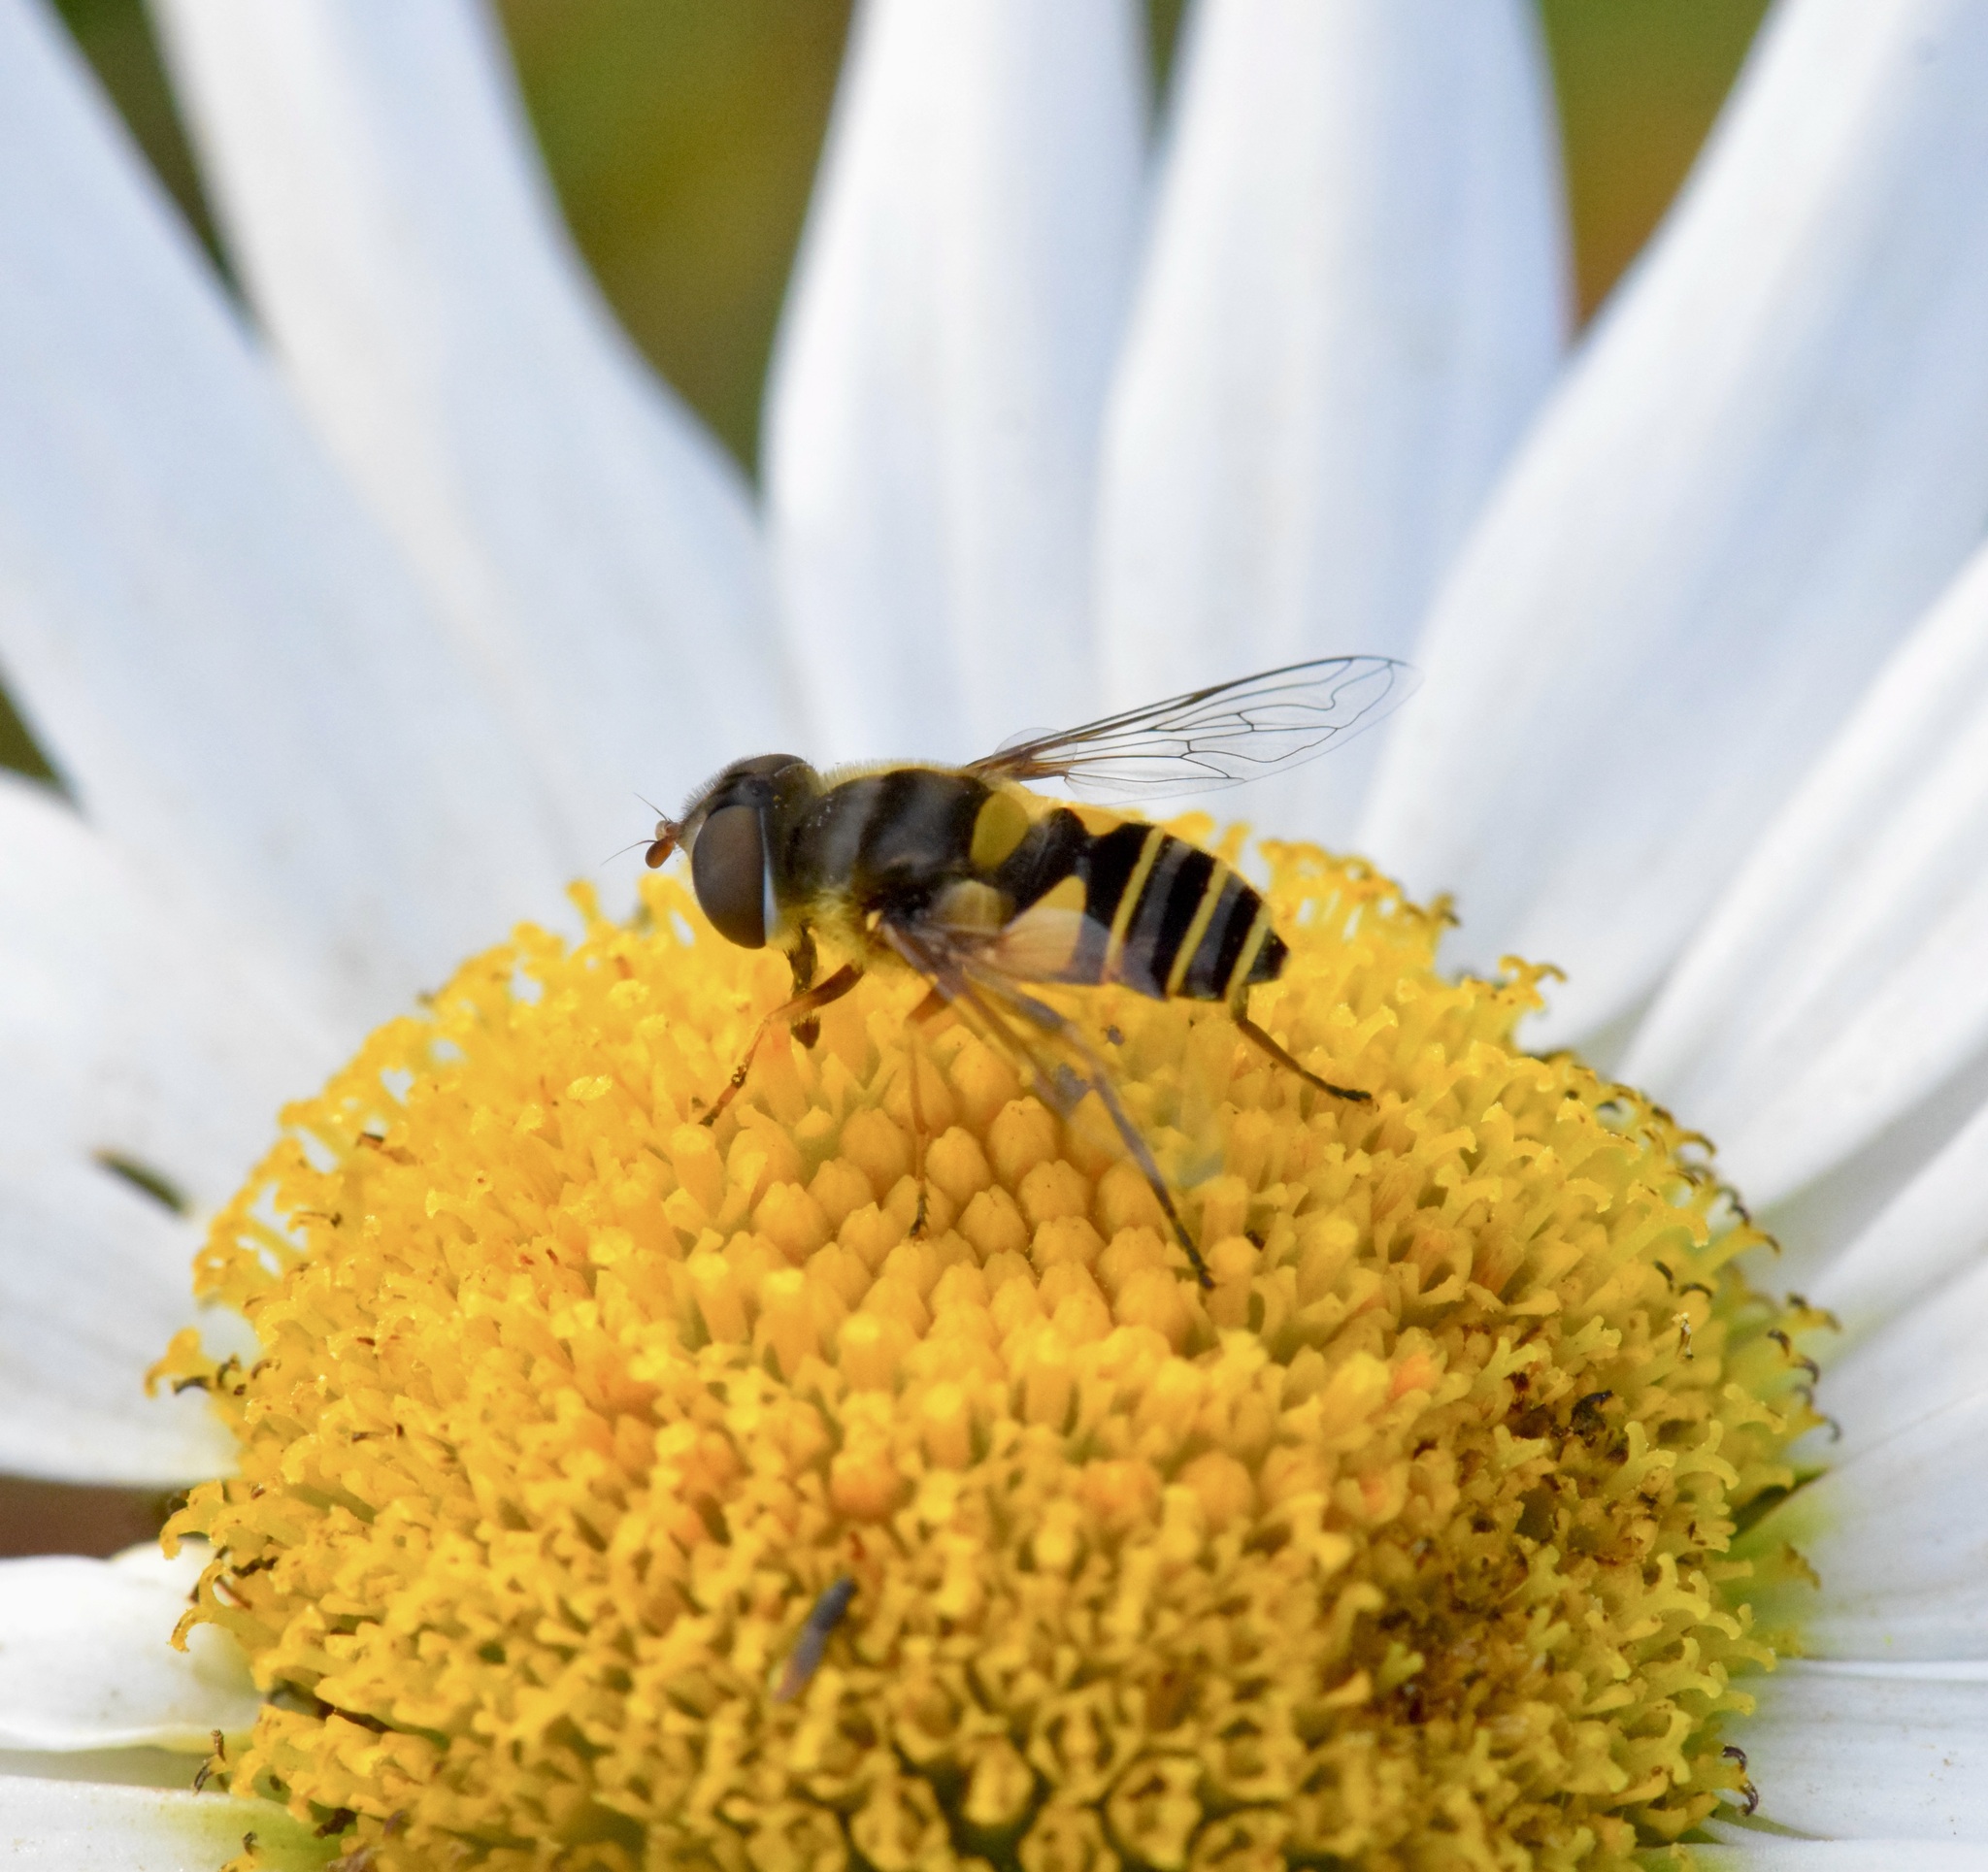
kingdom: Animalia
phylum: Arthropoda
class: Insecta
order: Diptera
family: Syrphidae
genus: Eristalis
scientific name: Eristalis transversa
